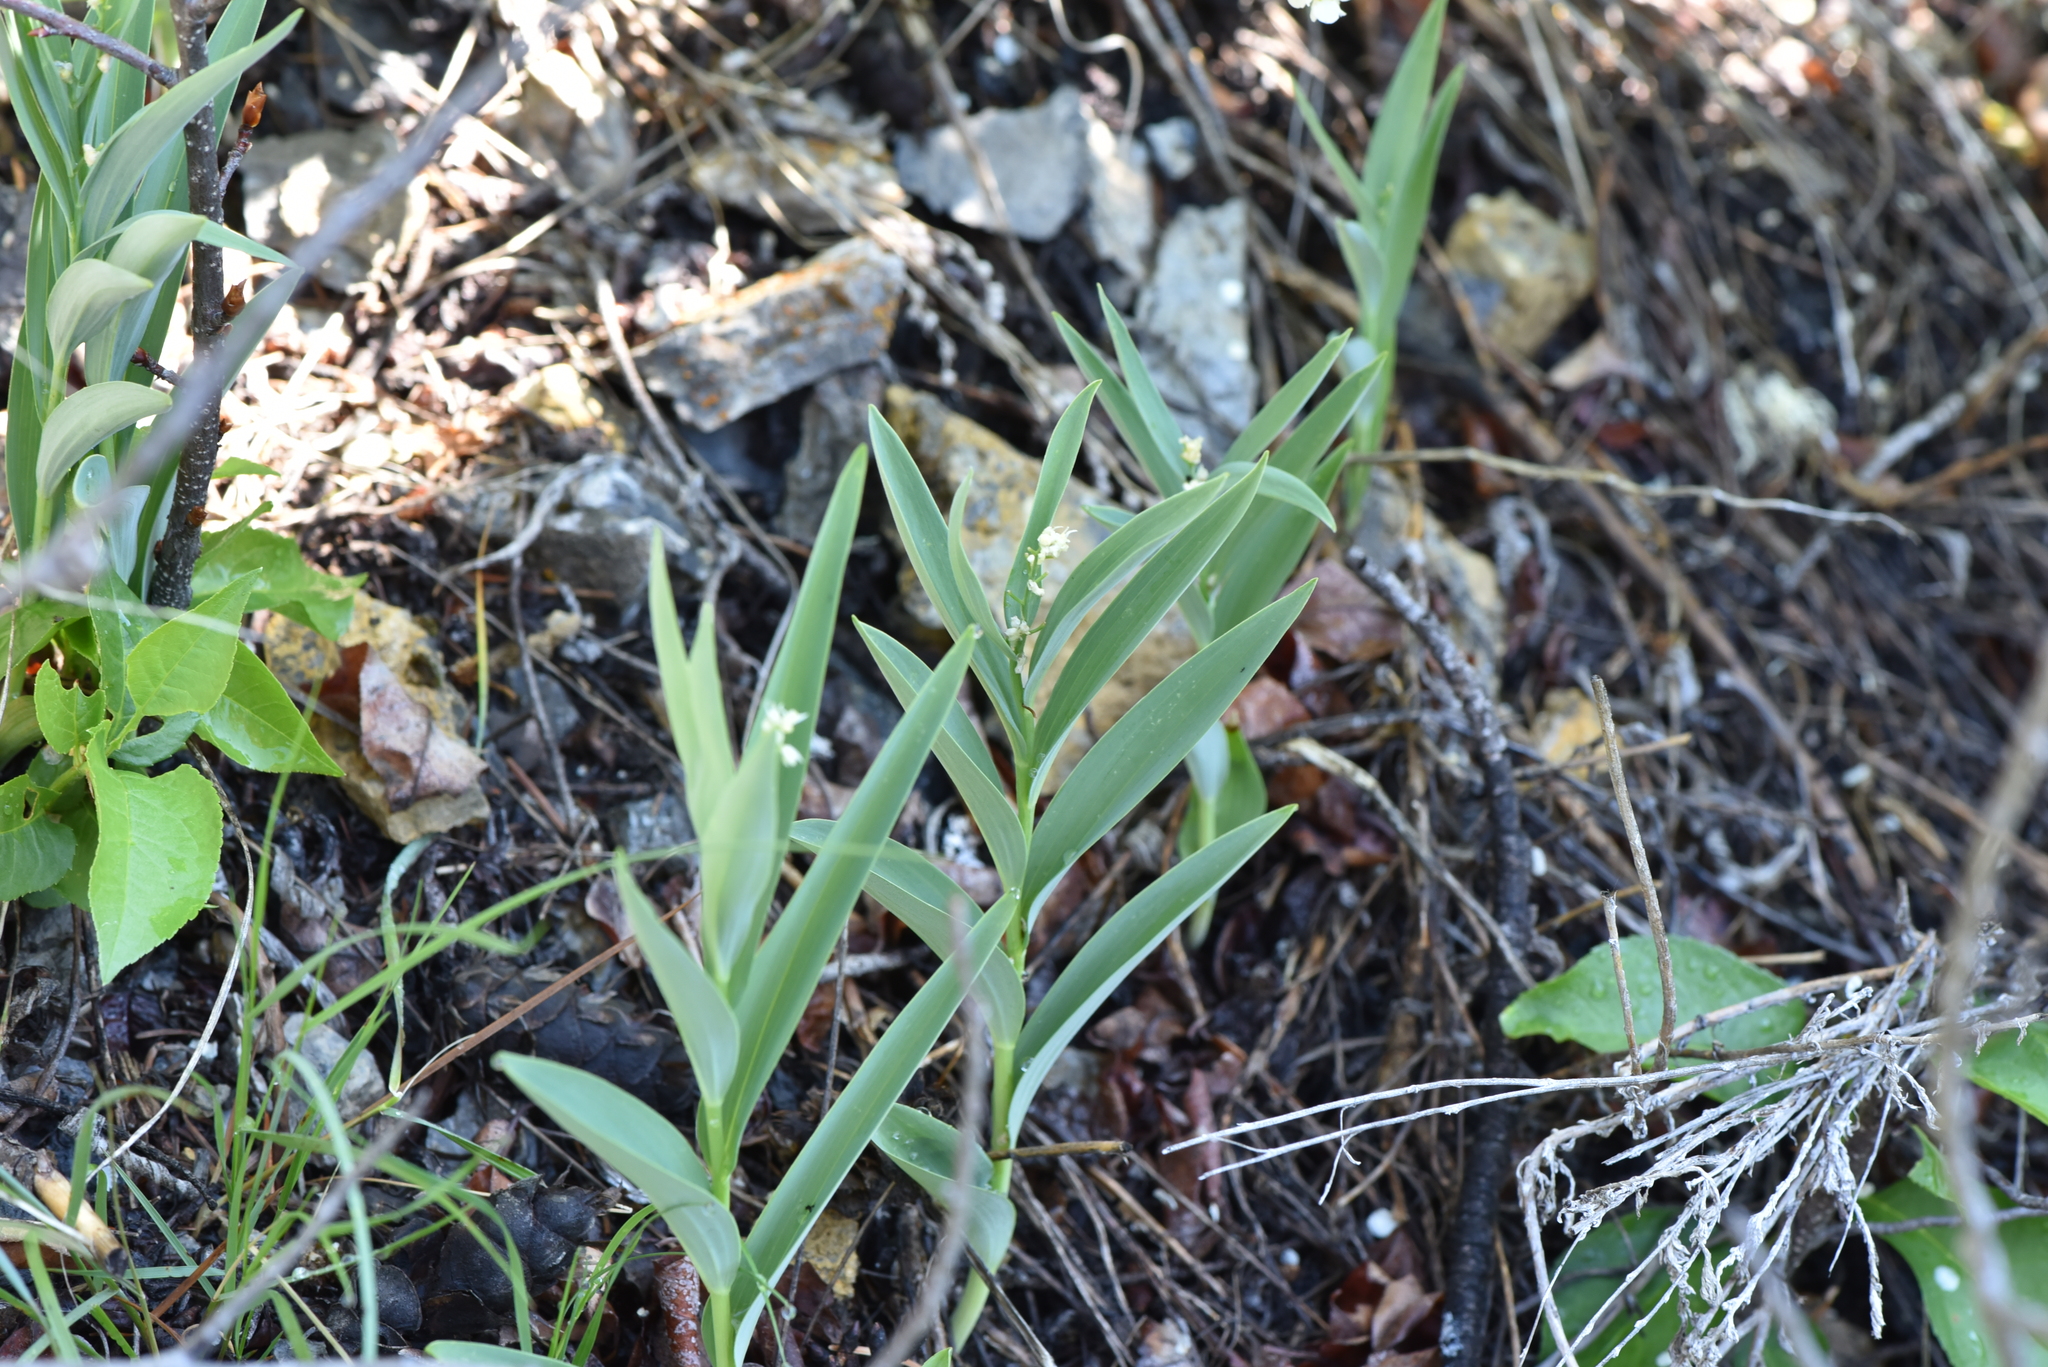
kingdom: Plantae
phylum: Tracheophyta
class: Liliopsida
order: Asparagales
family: Asparagaceae
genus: Maianthemum
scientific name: Maianthemum stellatum
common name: Little false solomon's seal
